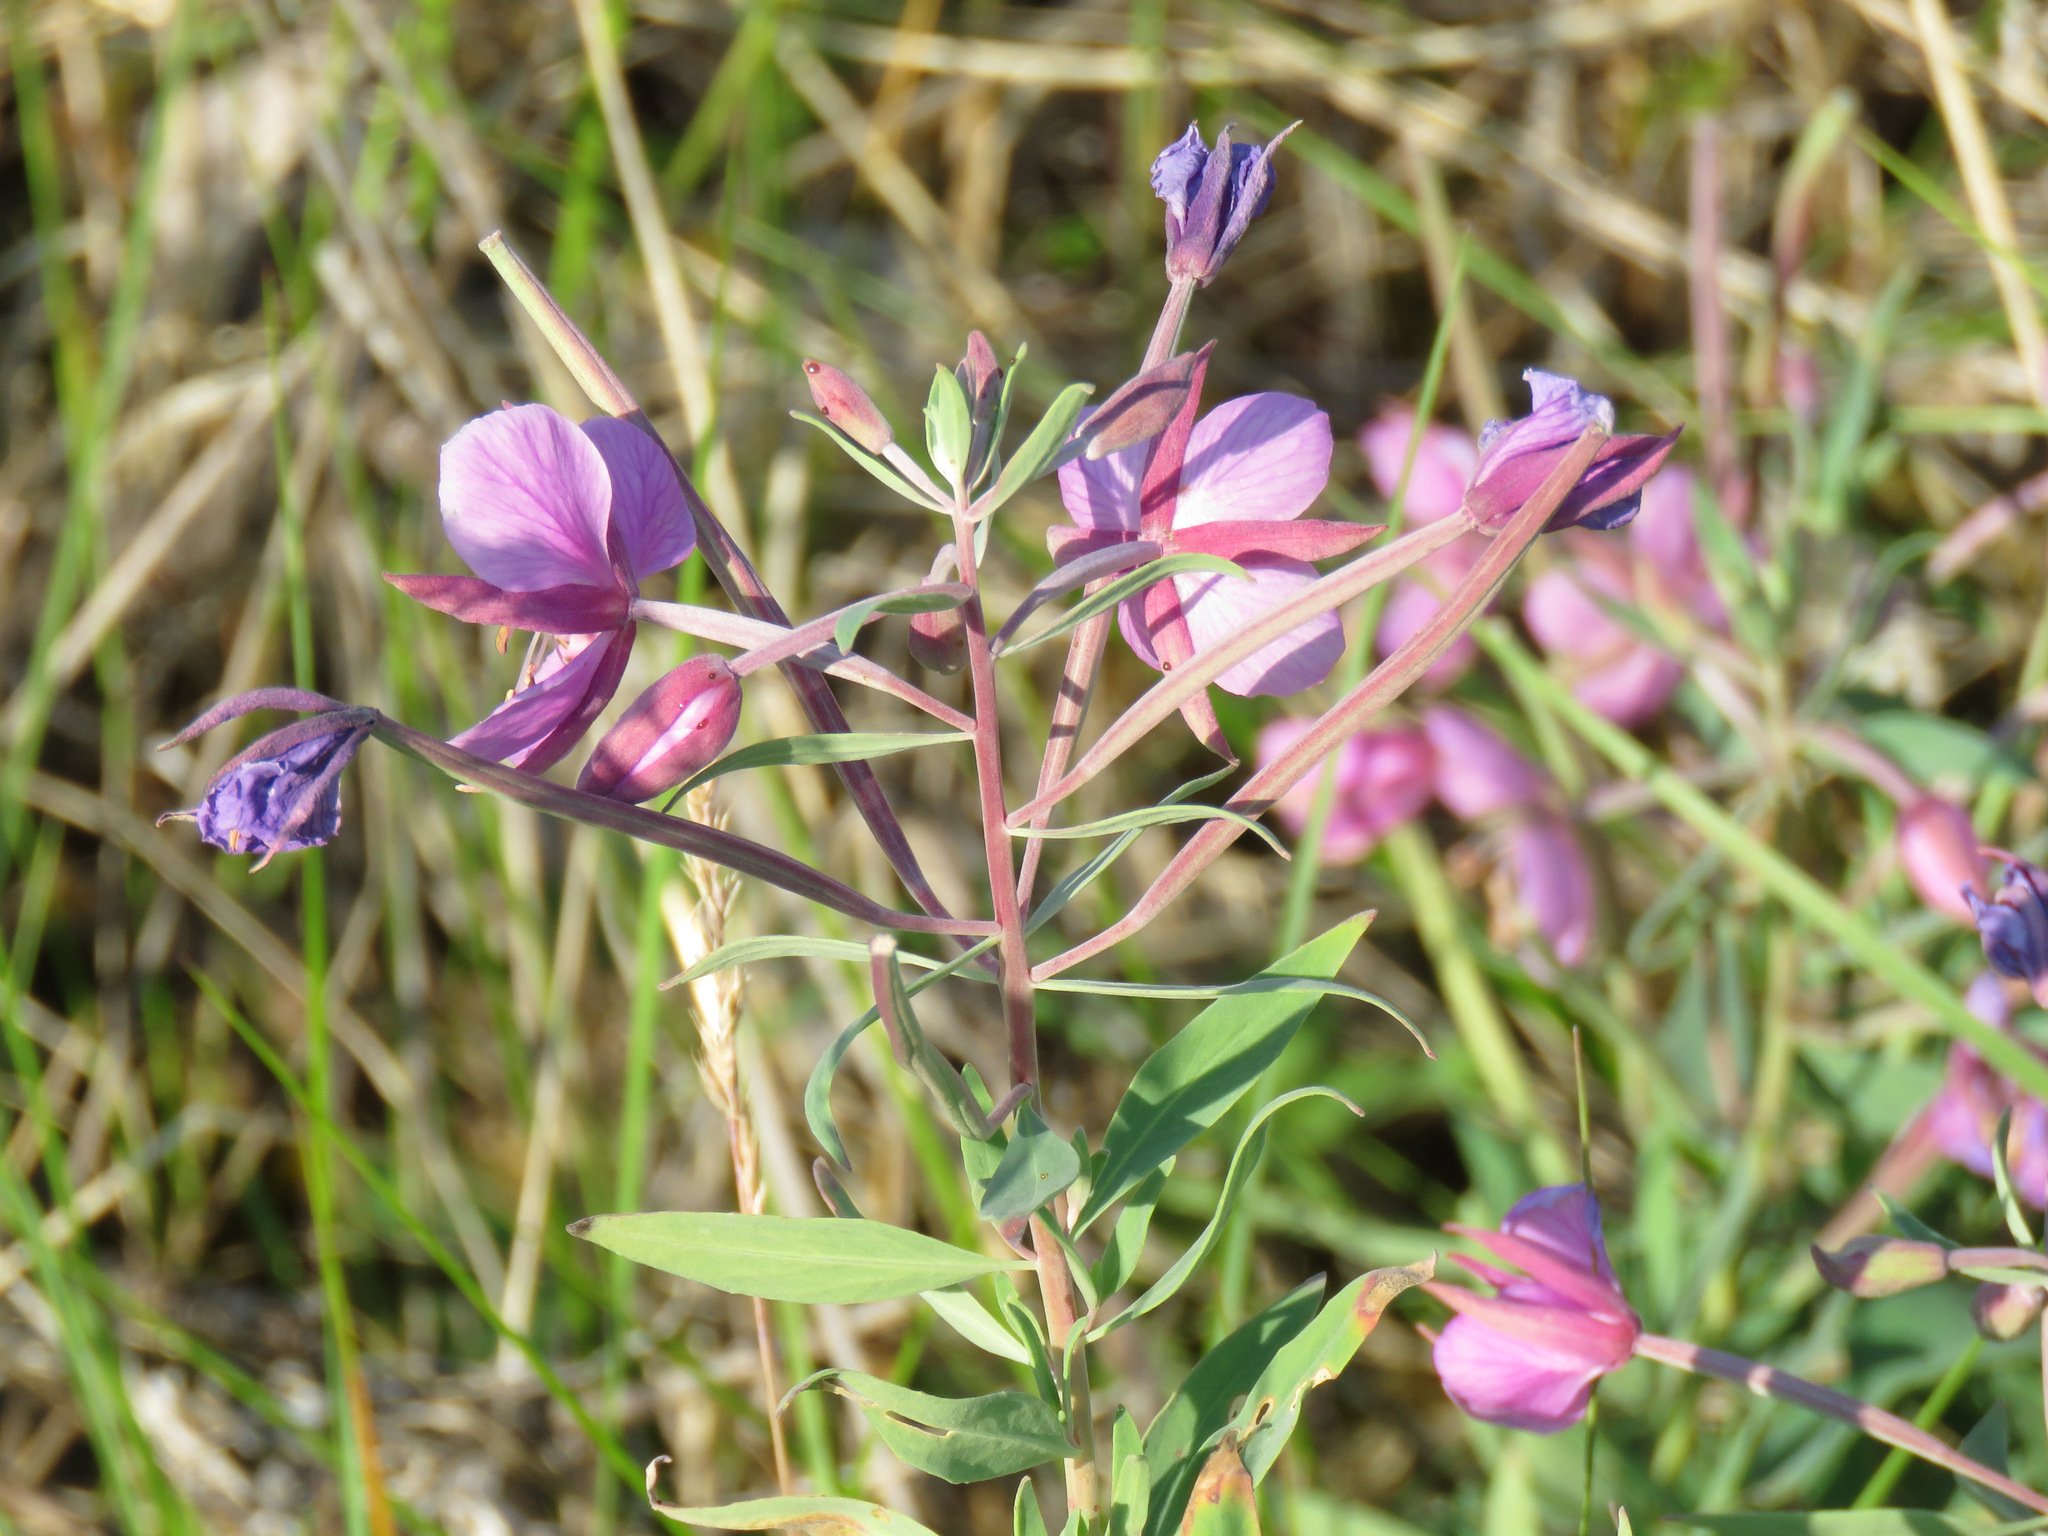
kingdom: Plantae
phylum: Tracheophyta
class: Magnoliopsida
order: Myrtales
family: Onagraceae
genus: Chamaenerion
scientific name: Chamaenerion latifolium
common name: Dwarf fireweed
